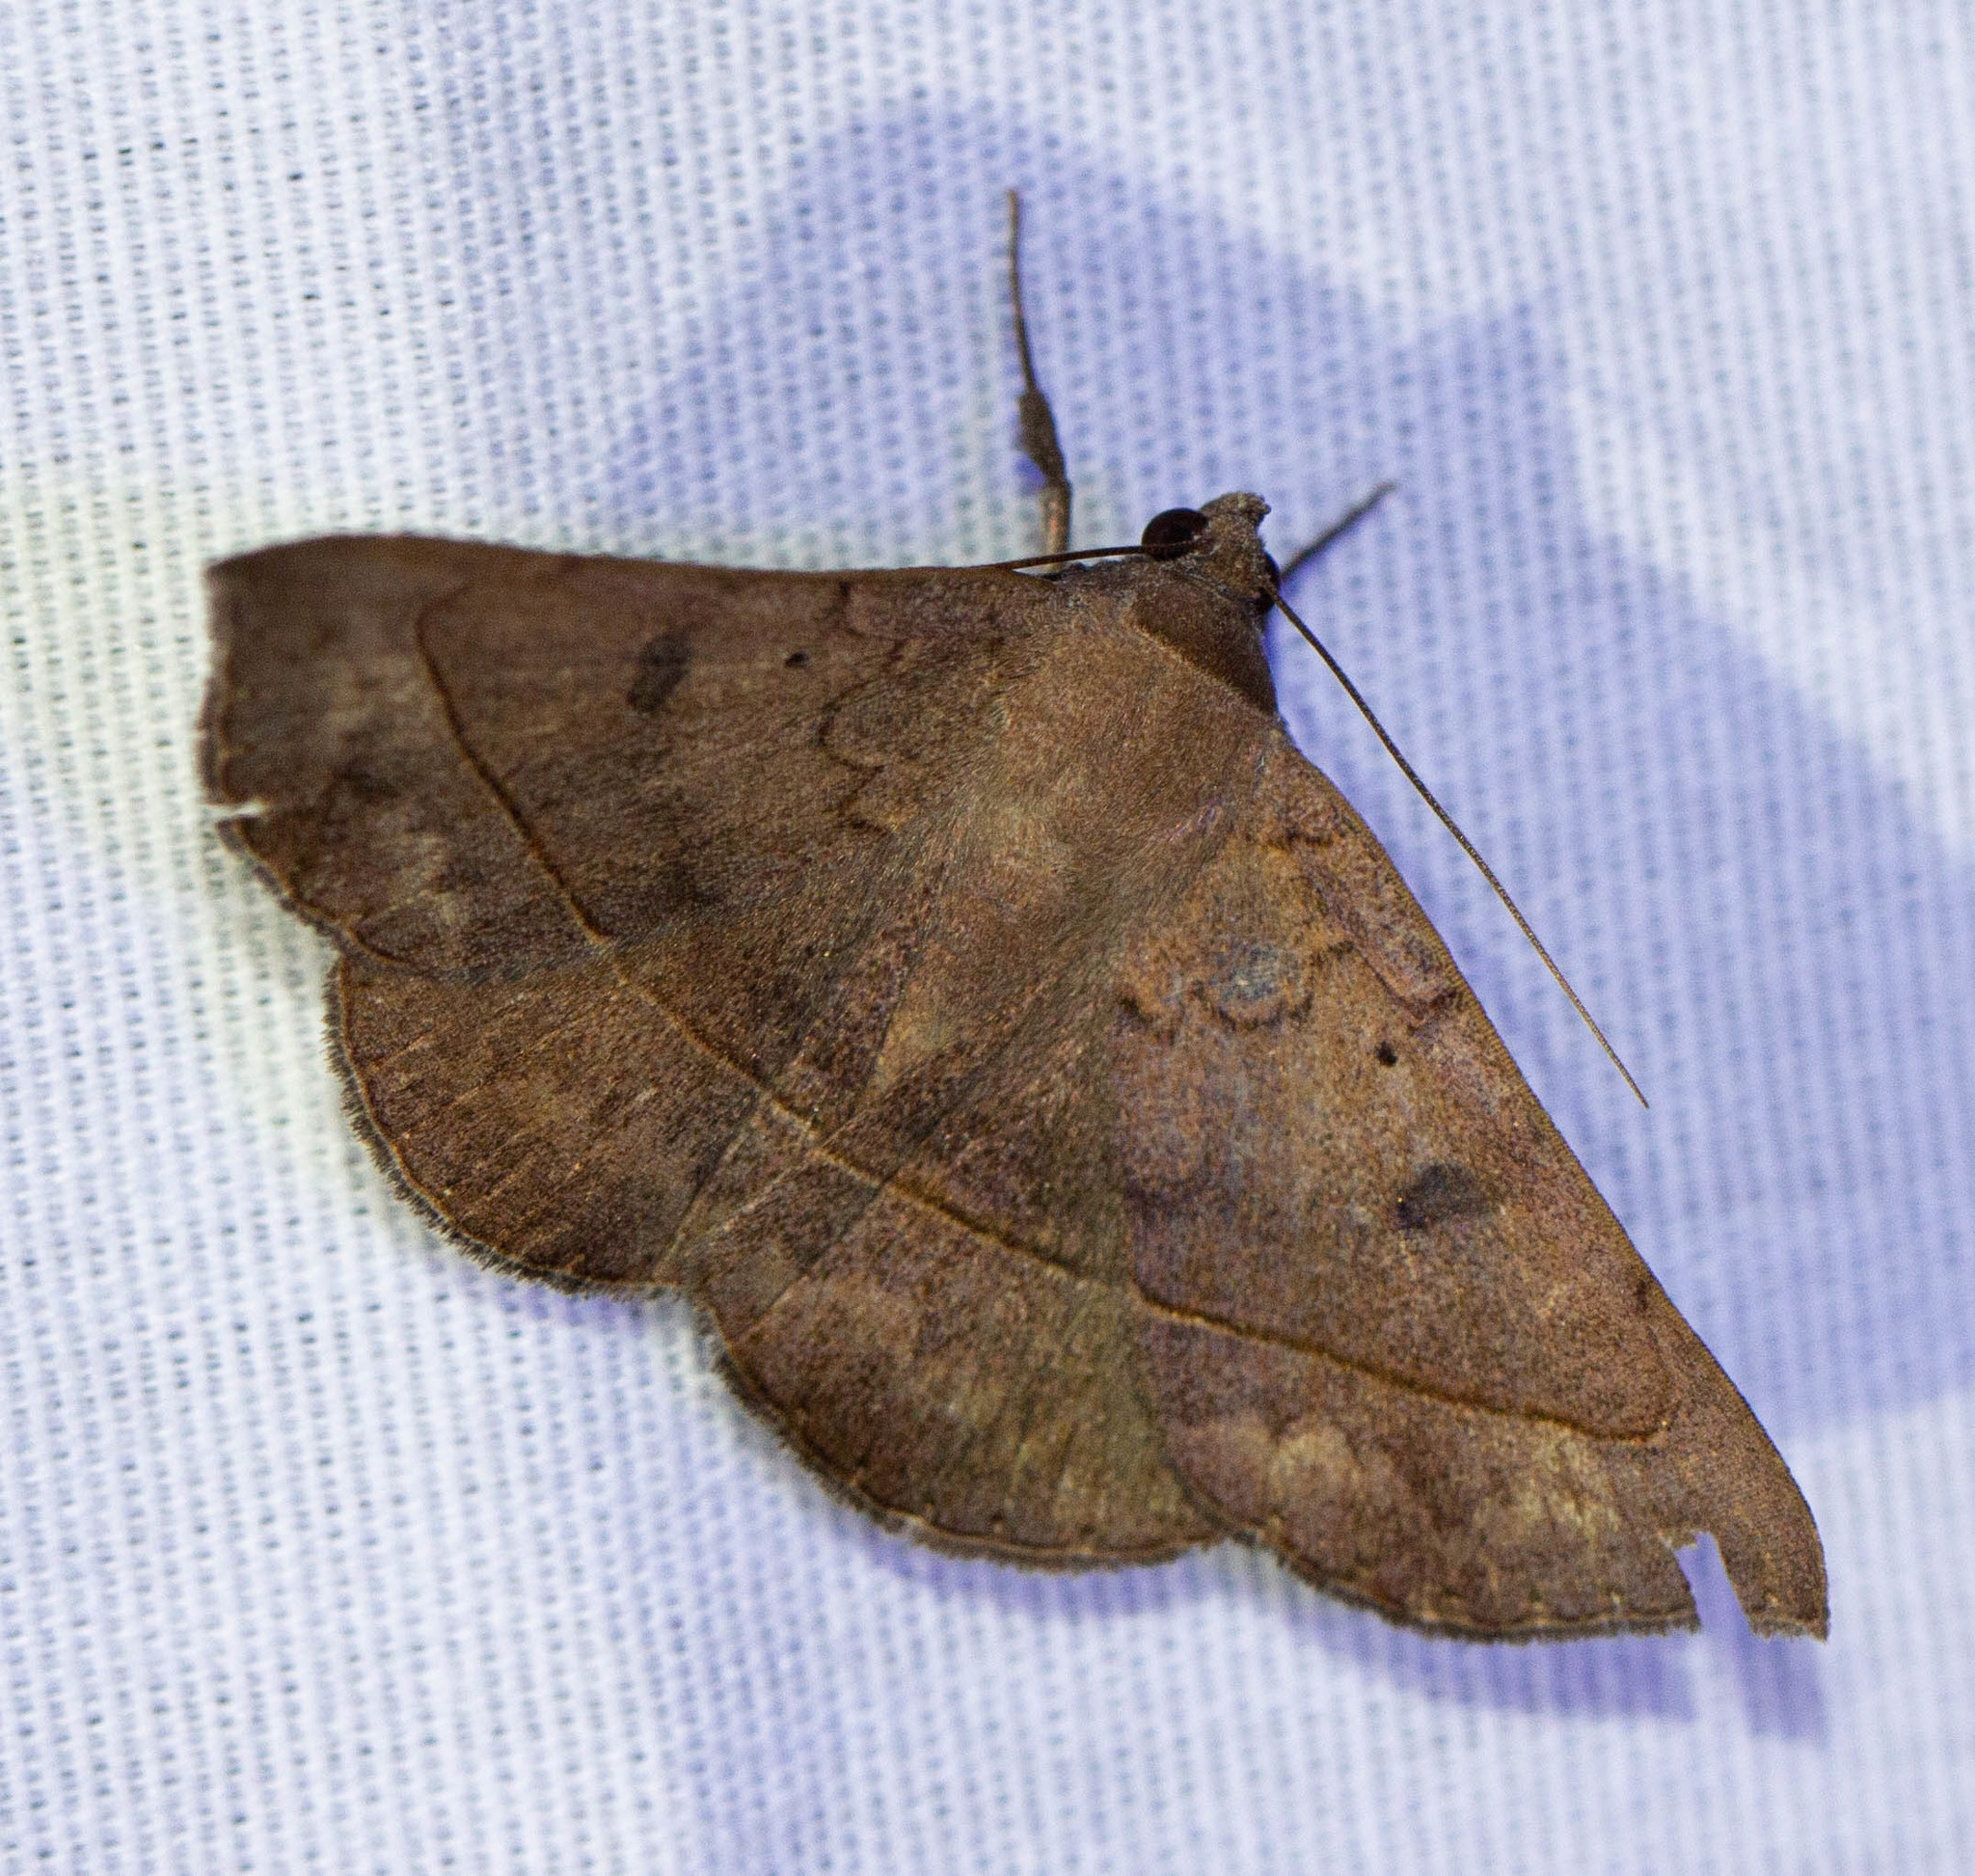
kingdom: Animalia
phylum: Arthropoda
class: Insecta
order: Lepidoptera
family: Erebidae
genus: Epidromia
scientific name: Epidromia rotundata
